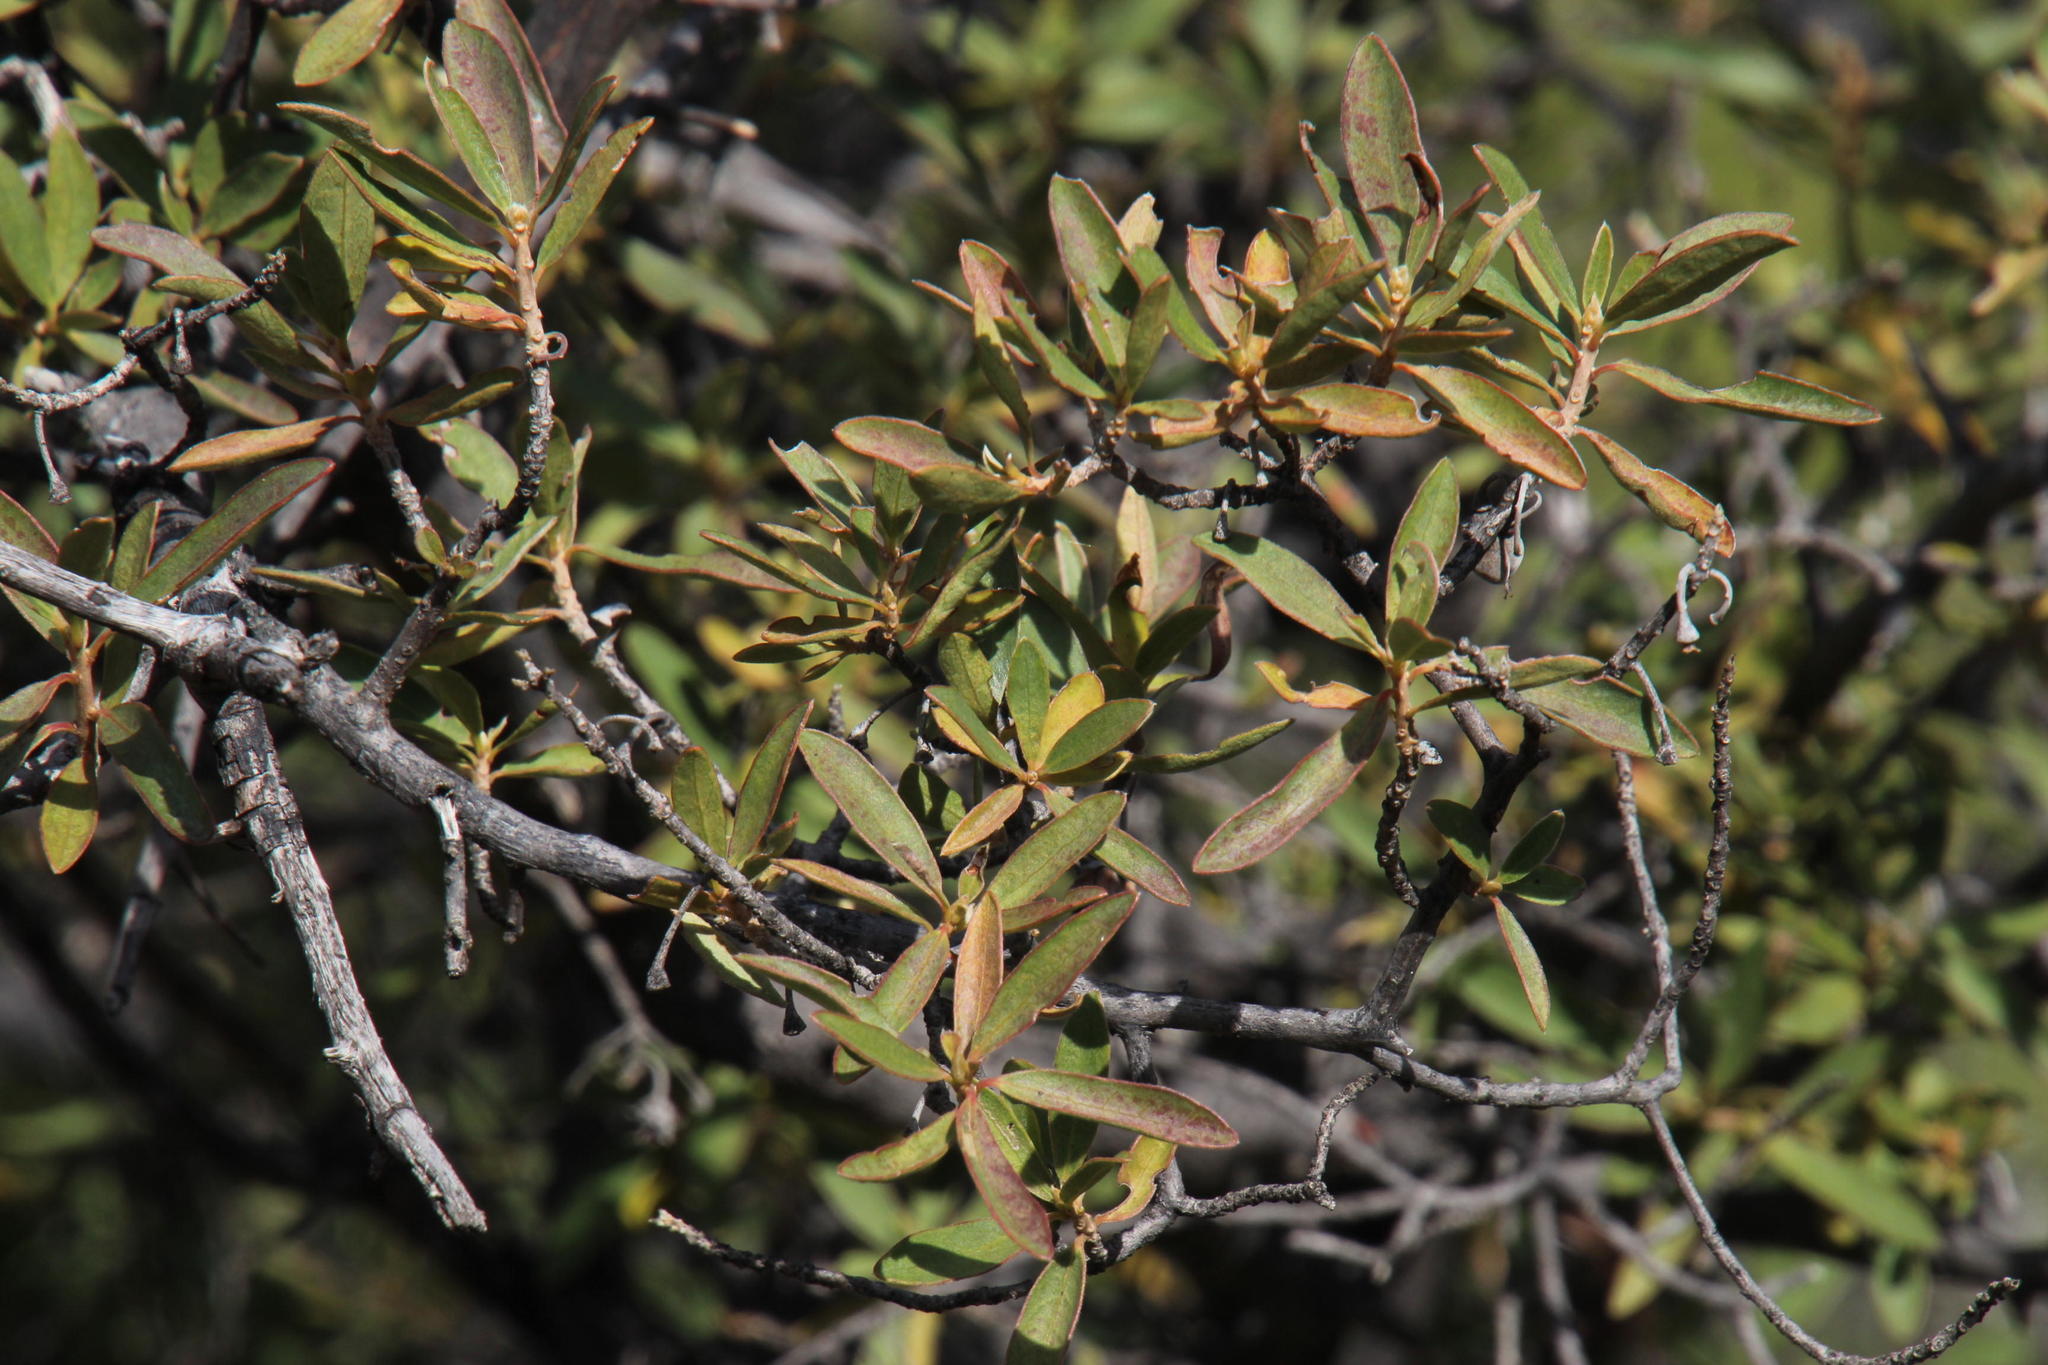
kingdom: Plantae
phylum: Tracheophyta
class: Magnoliopsida
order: Ericales
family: Ebenaceae
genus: Diospyros
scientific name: Diospyros lycioides
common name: Red star apple
